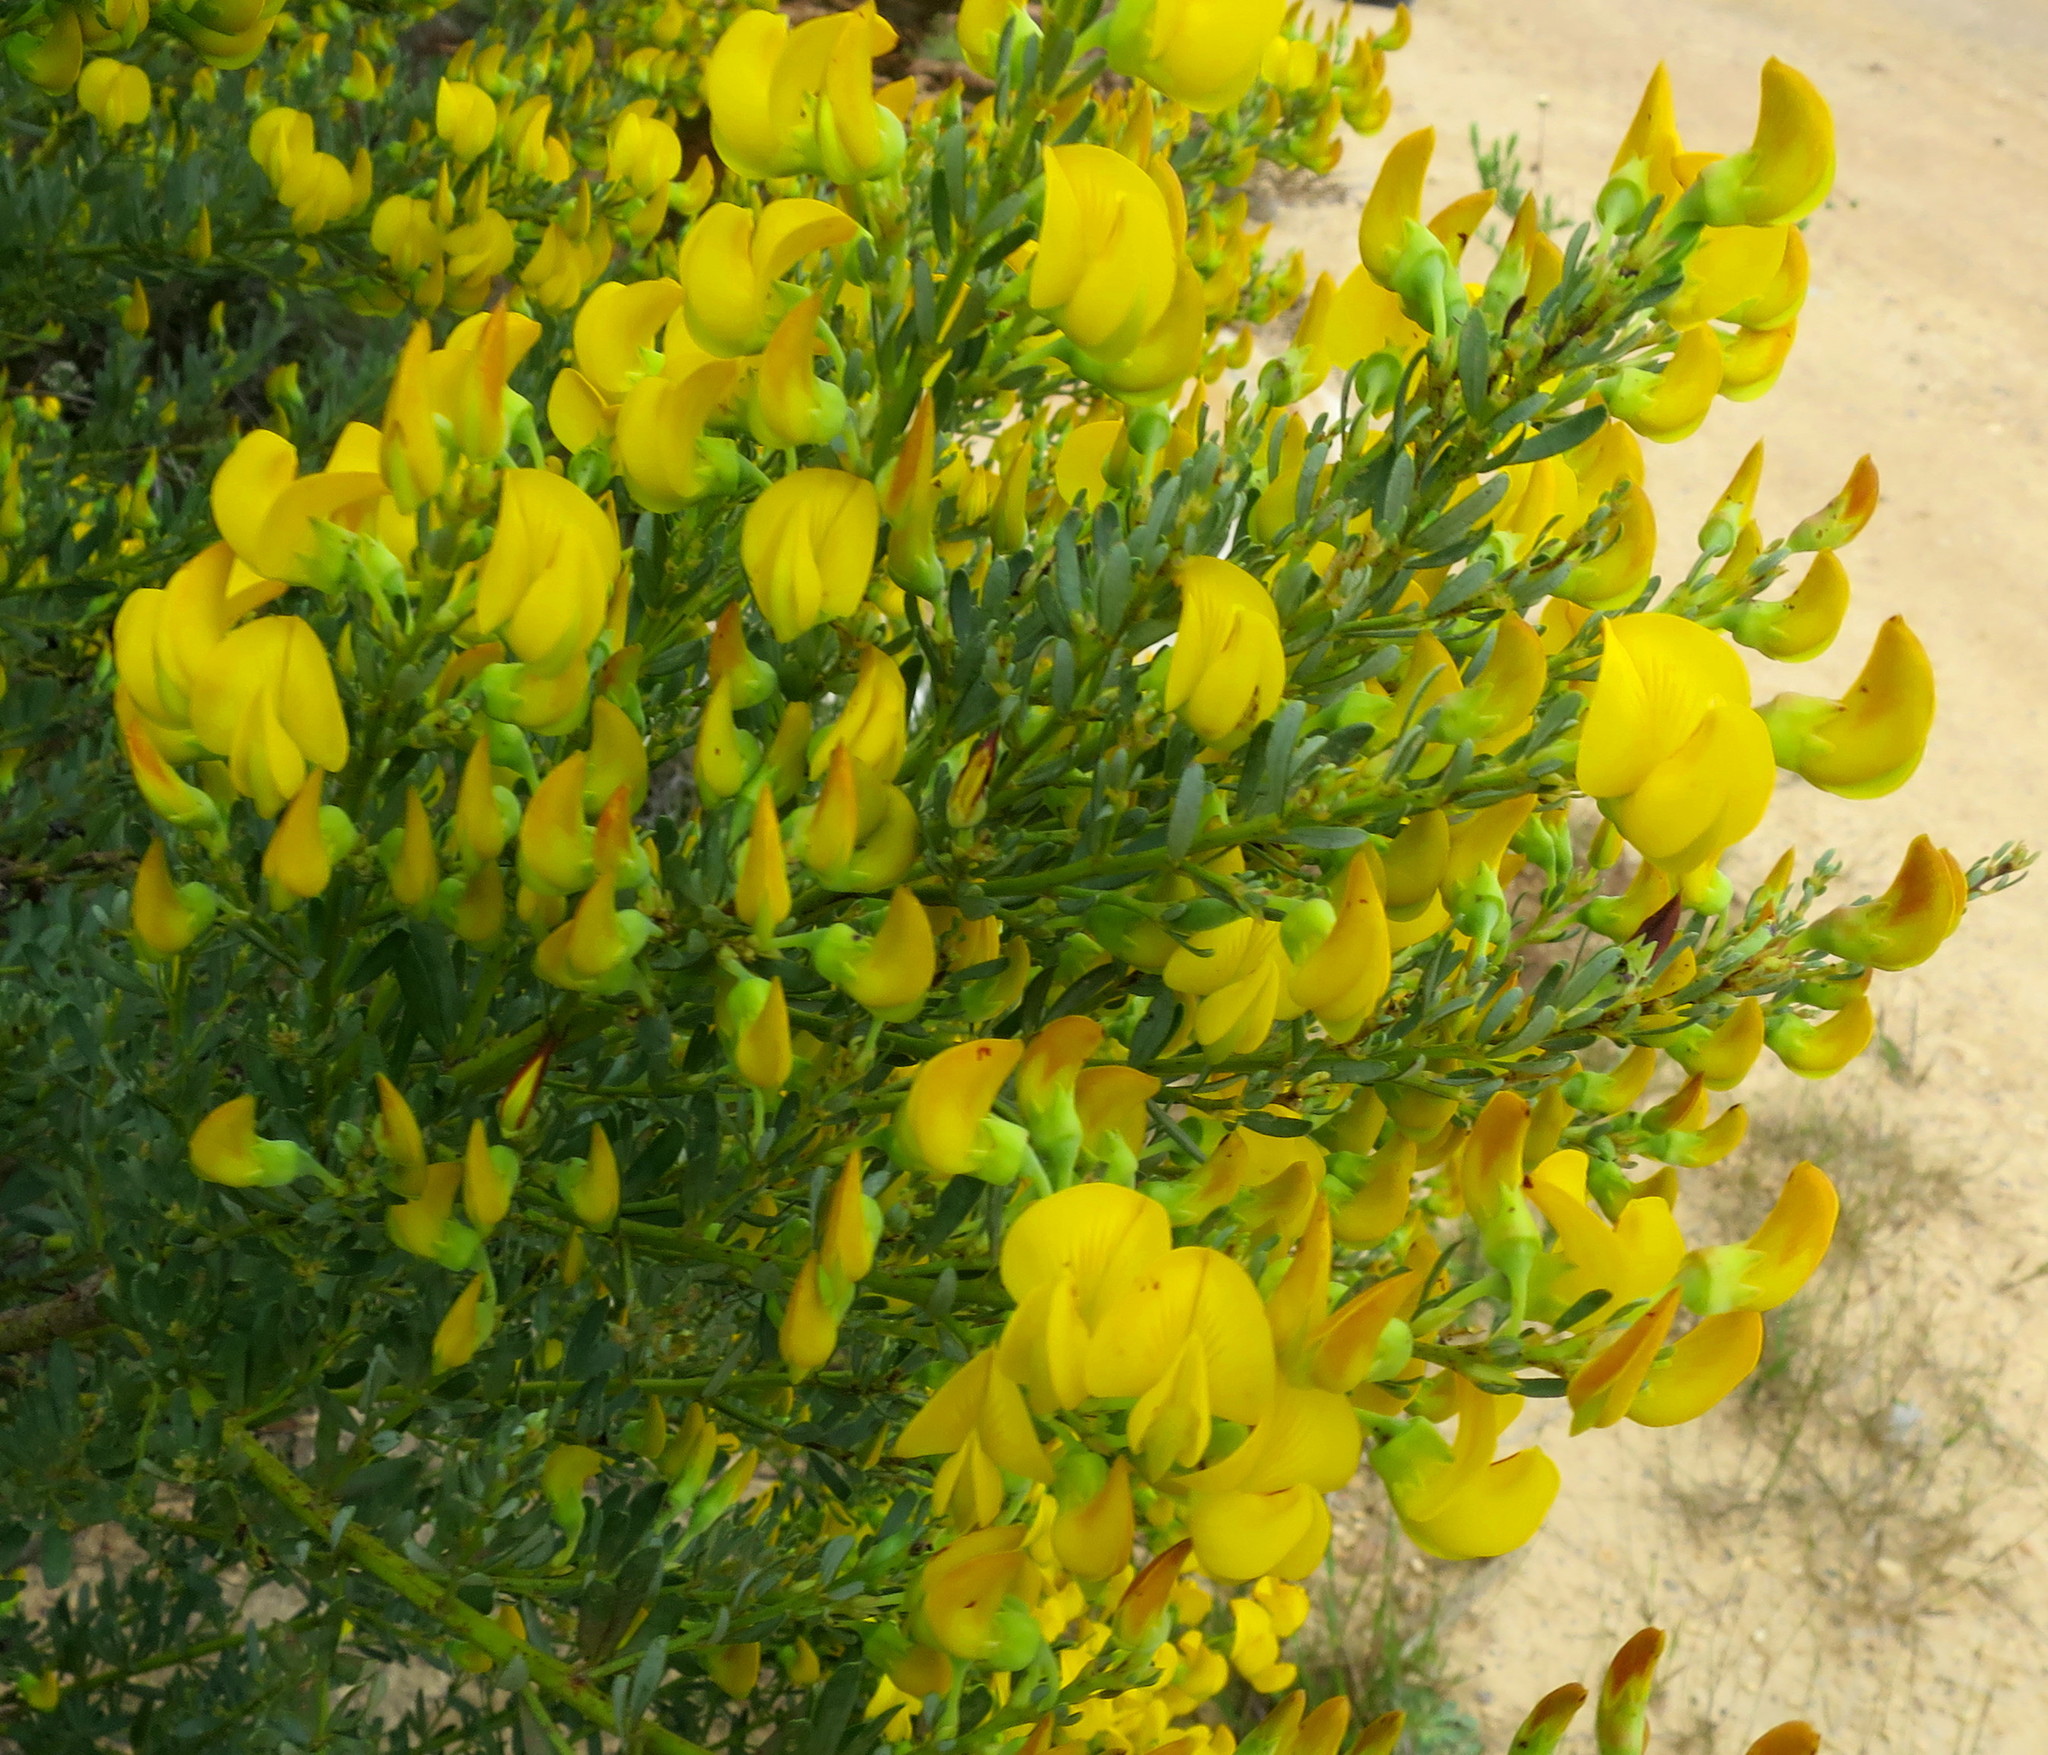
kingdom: Plantae
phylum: Tracheophyta
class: Magnoliopsida
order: Fabales
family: Fabaceae
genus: Cyclopia
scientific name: Cyclopia subternata
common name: Honeybush tea
